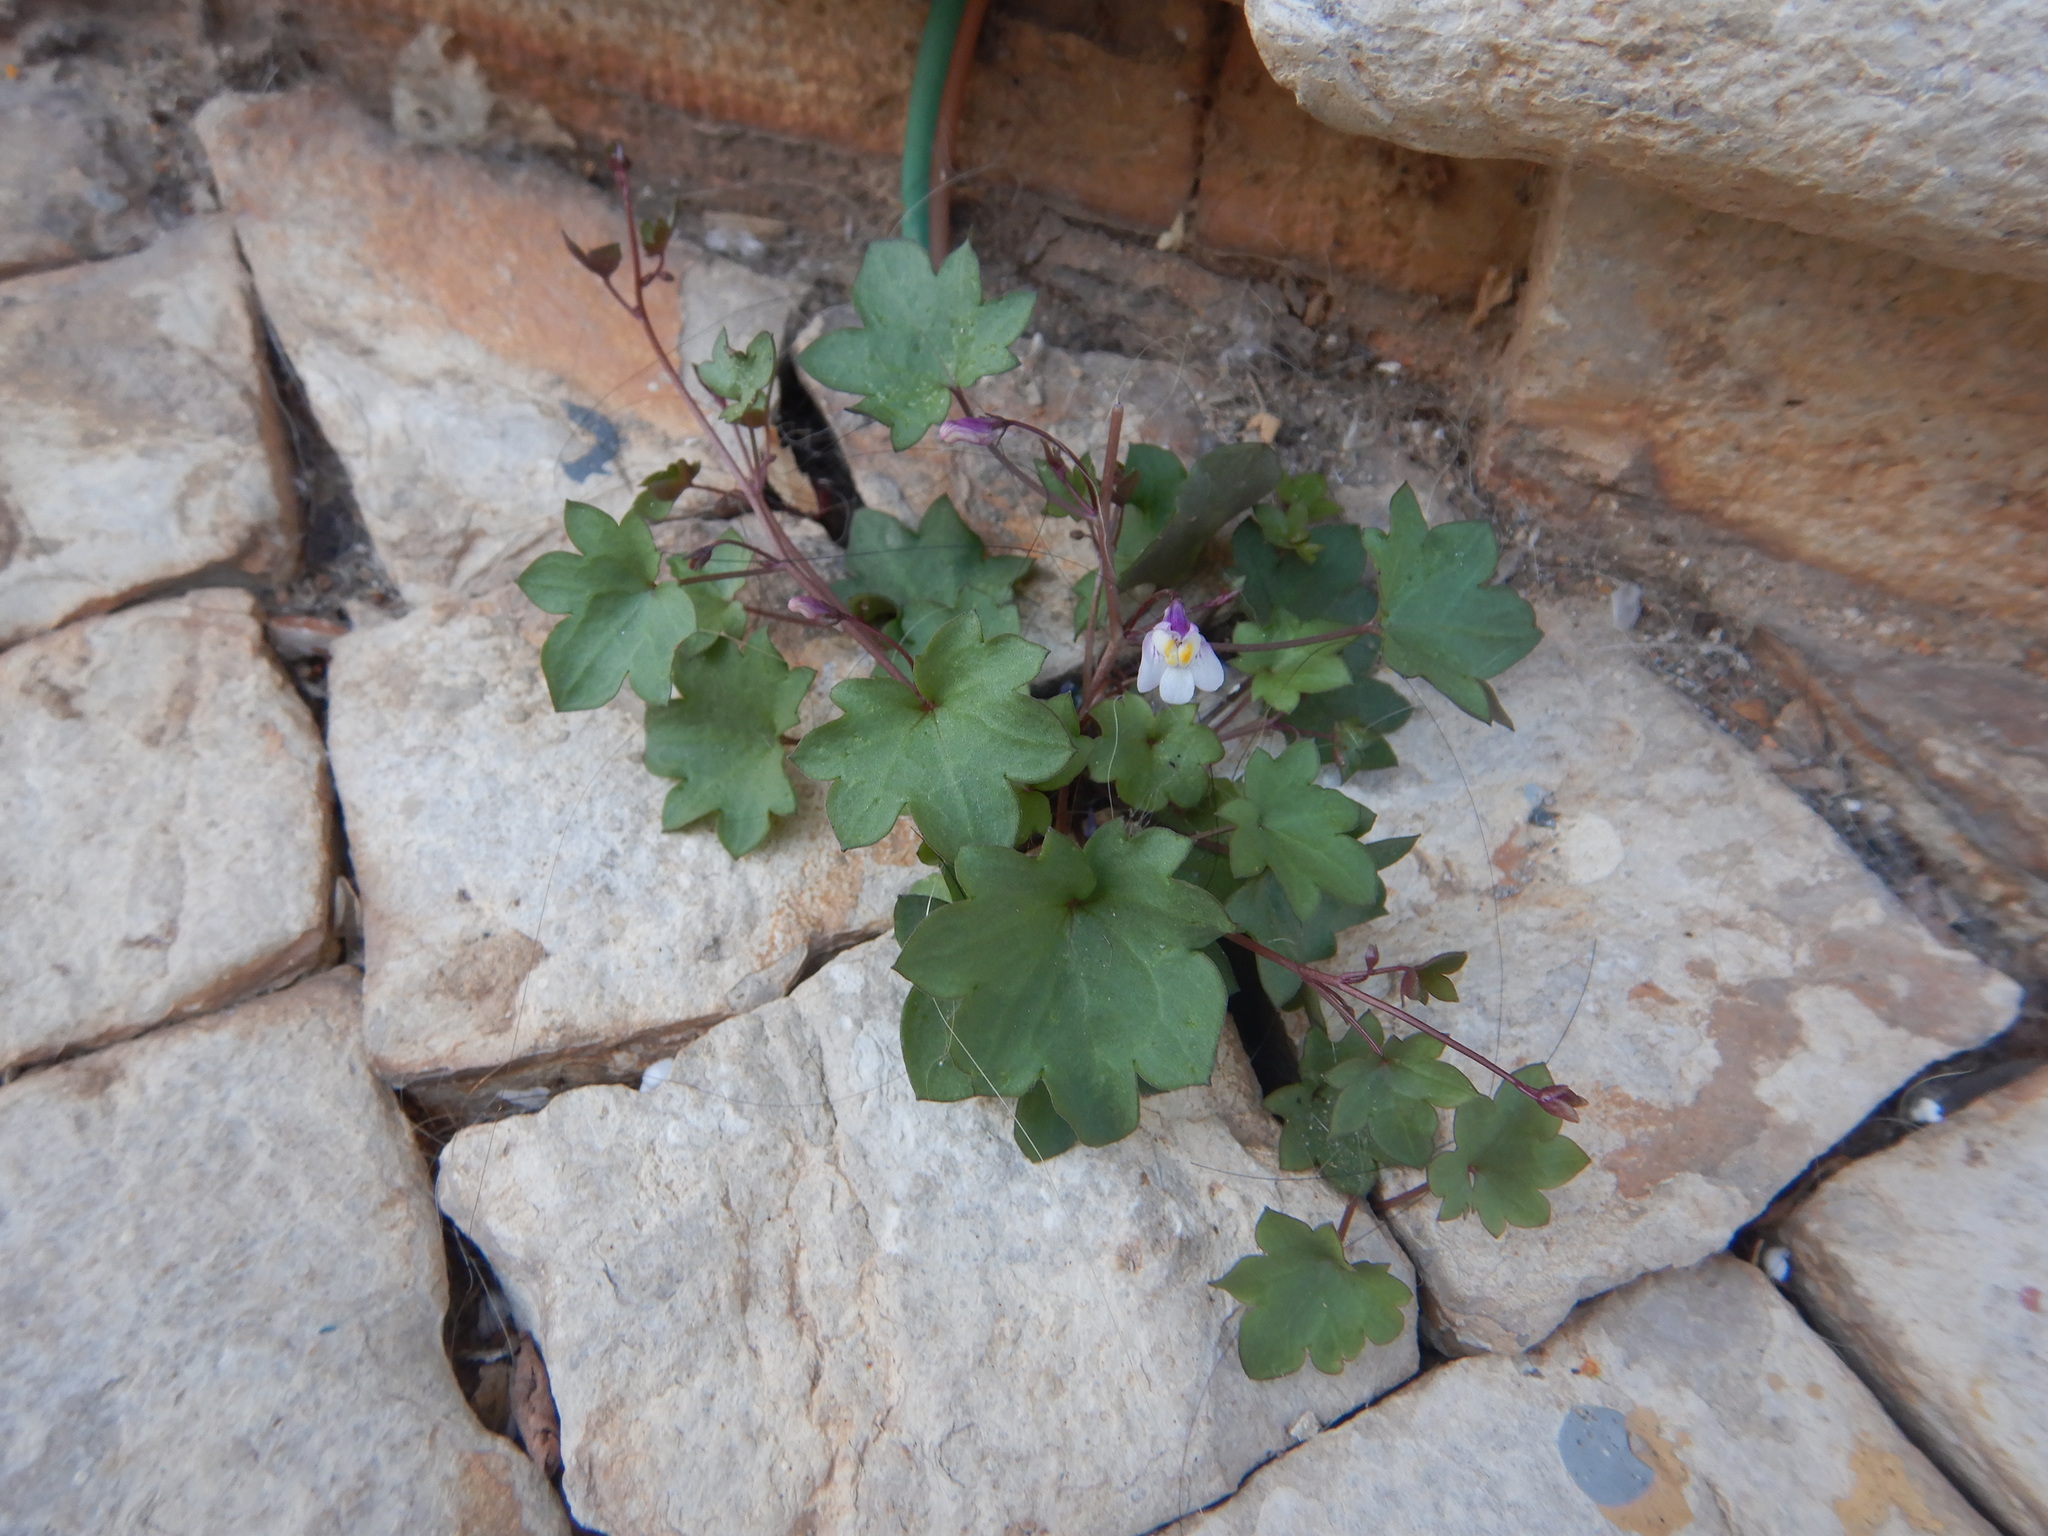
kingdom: Plantae
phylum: Tracheophyta
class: Magnoliopsida
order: Lamiales
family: Plantaginaceae
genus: Cymbalaria
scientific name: Cymbalaria muralis
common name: Ivy-leaved toadflax
